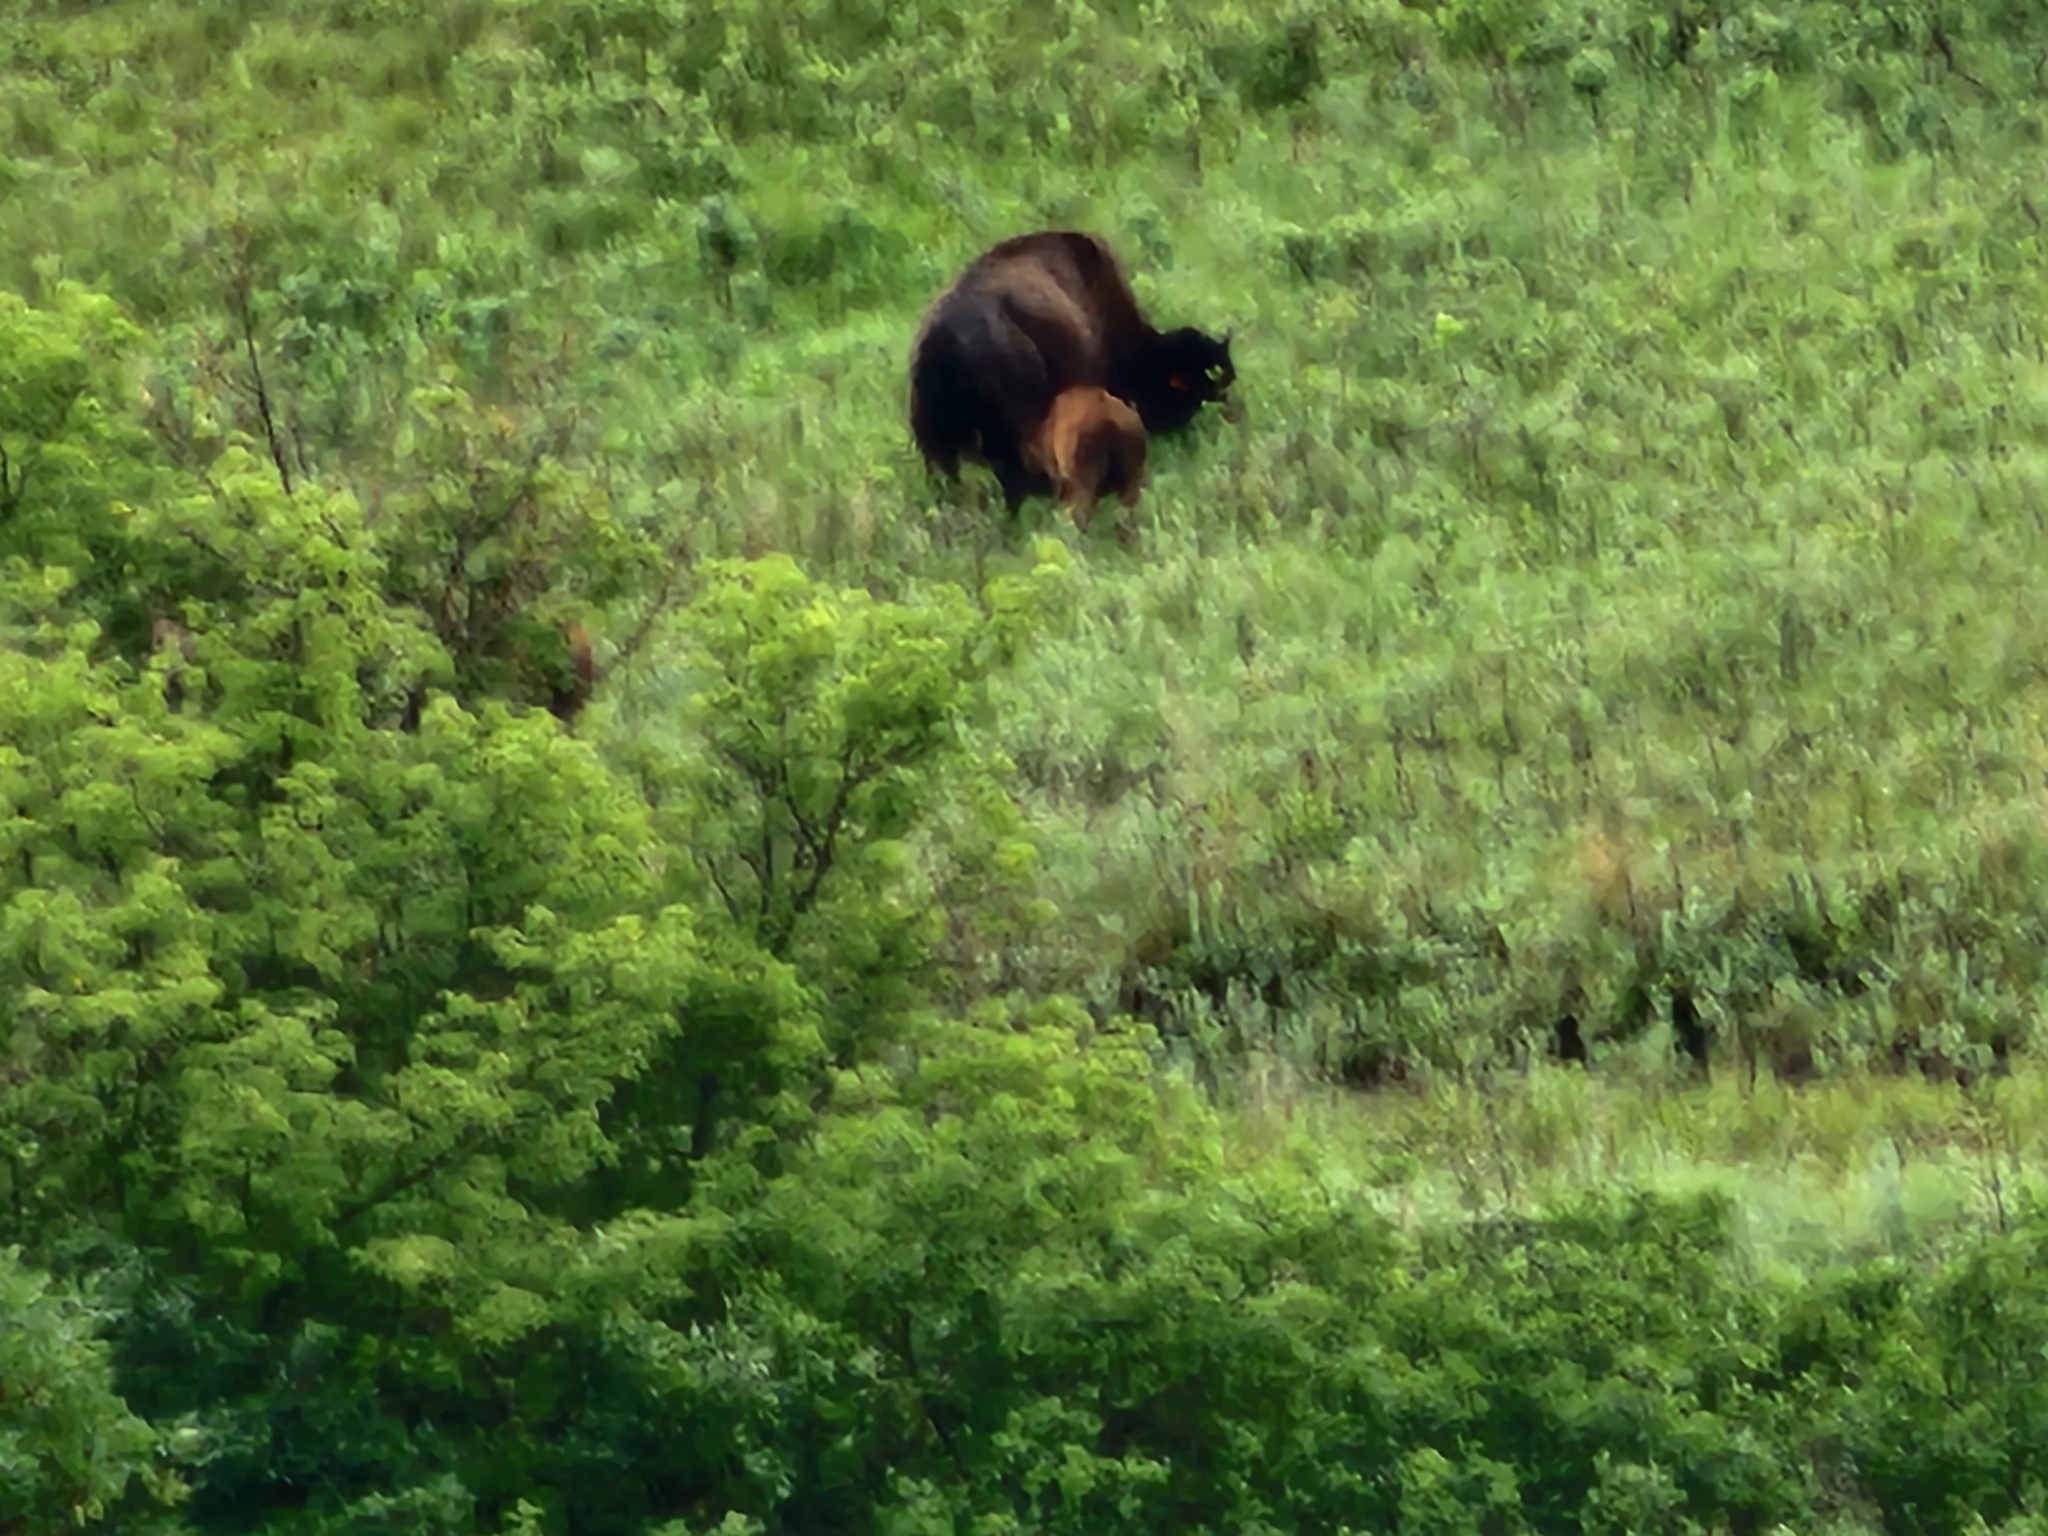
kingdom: Animalia
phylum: Chordata
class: Mammalia
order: Artiodactyla
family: Bovidae
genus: Bison
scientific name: Bison bison
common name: American bison
